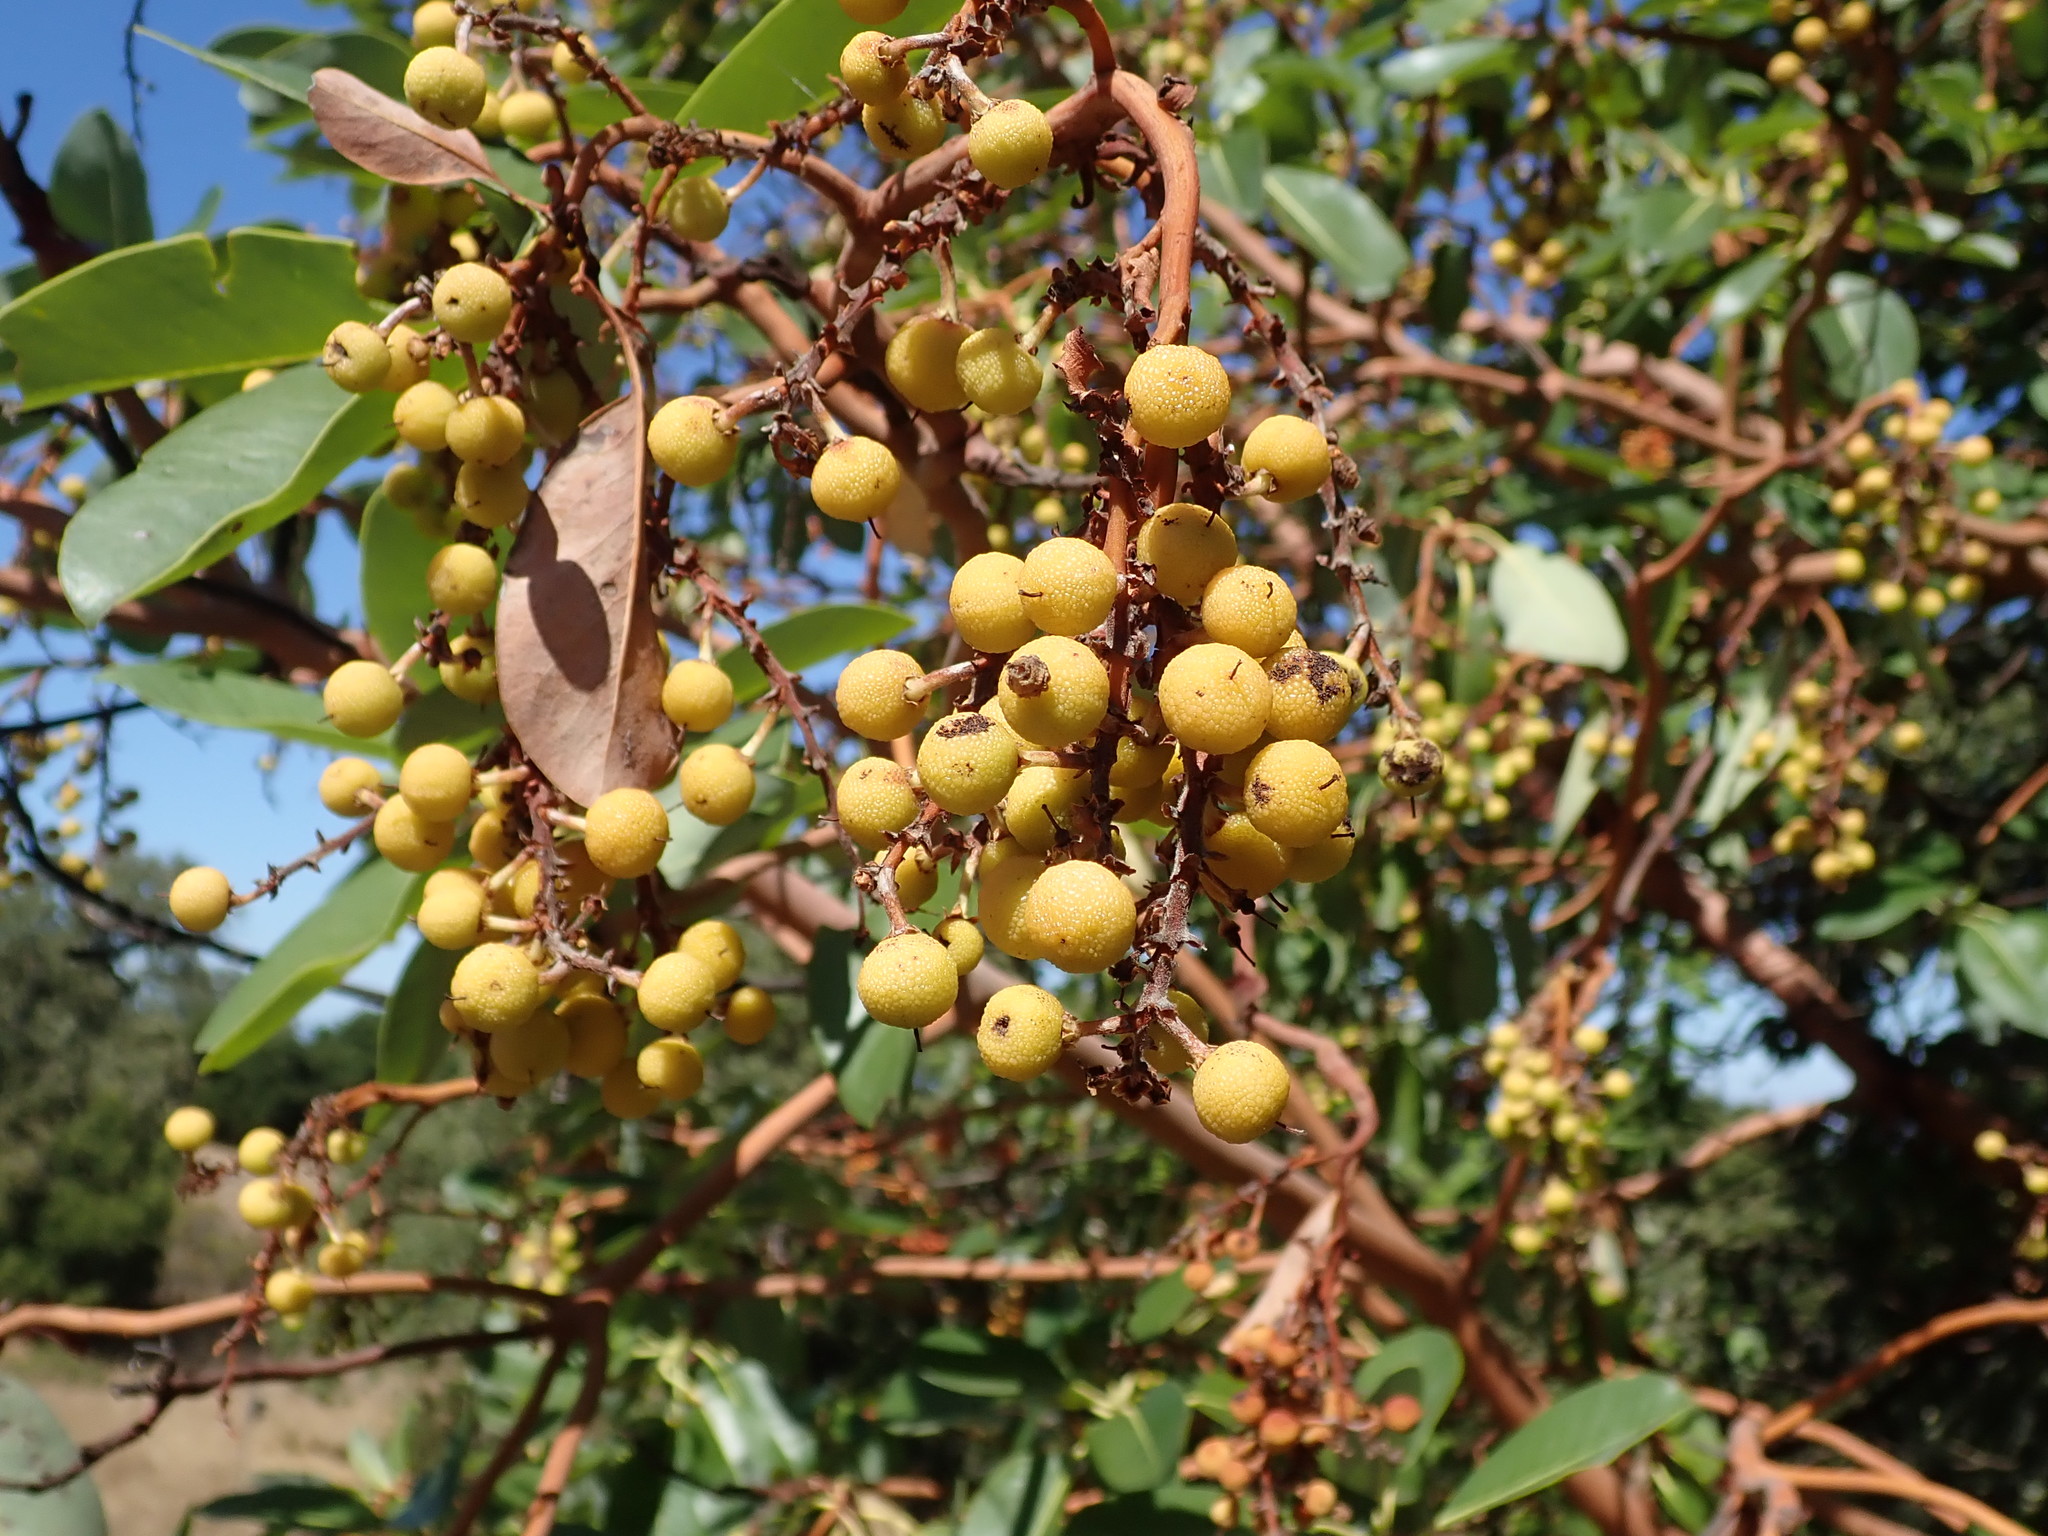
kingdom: Plantae
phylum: Tracheophyta
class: Magnoliopsida
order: Ericales
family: Ericaceae
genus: Arbutus
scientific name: Arbutus menziesii
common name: Pacific madrone
